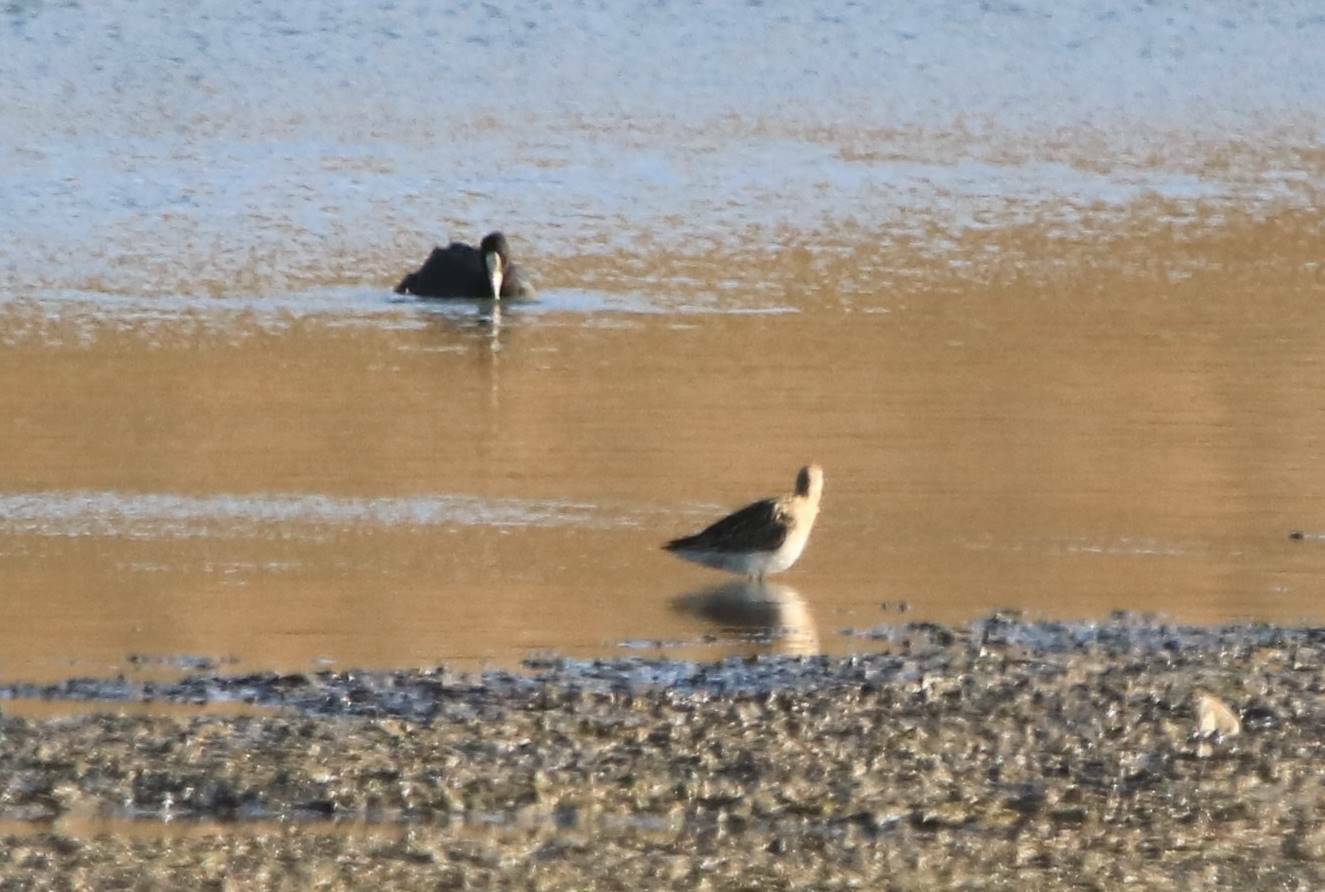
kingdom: Animalia
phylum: Chordata
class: Aves
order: Charadriiformes
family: Scolopacidae
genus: Calidris
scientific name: Calidris pugnax
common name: Ruff
